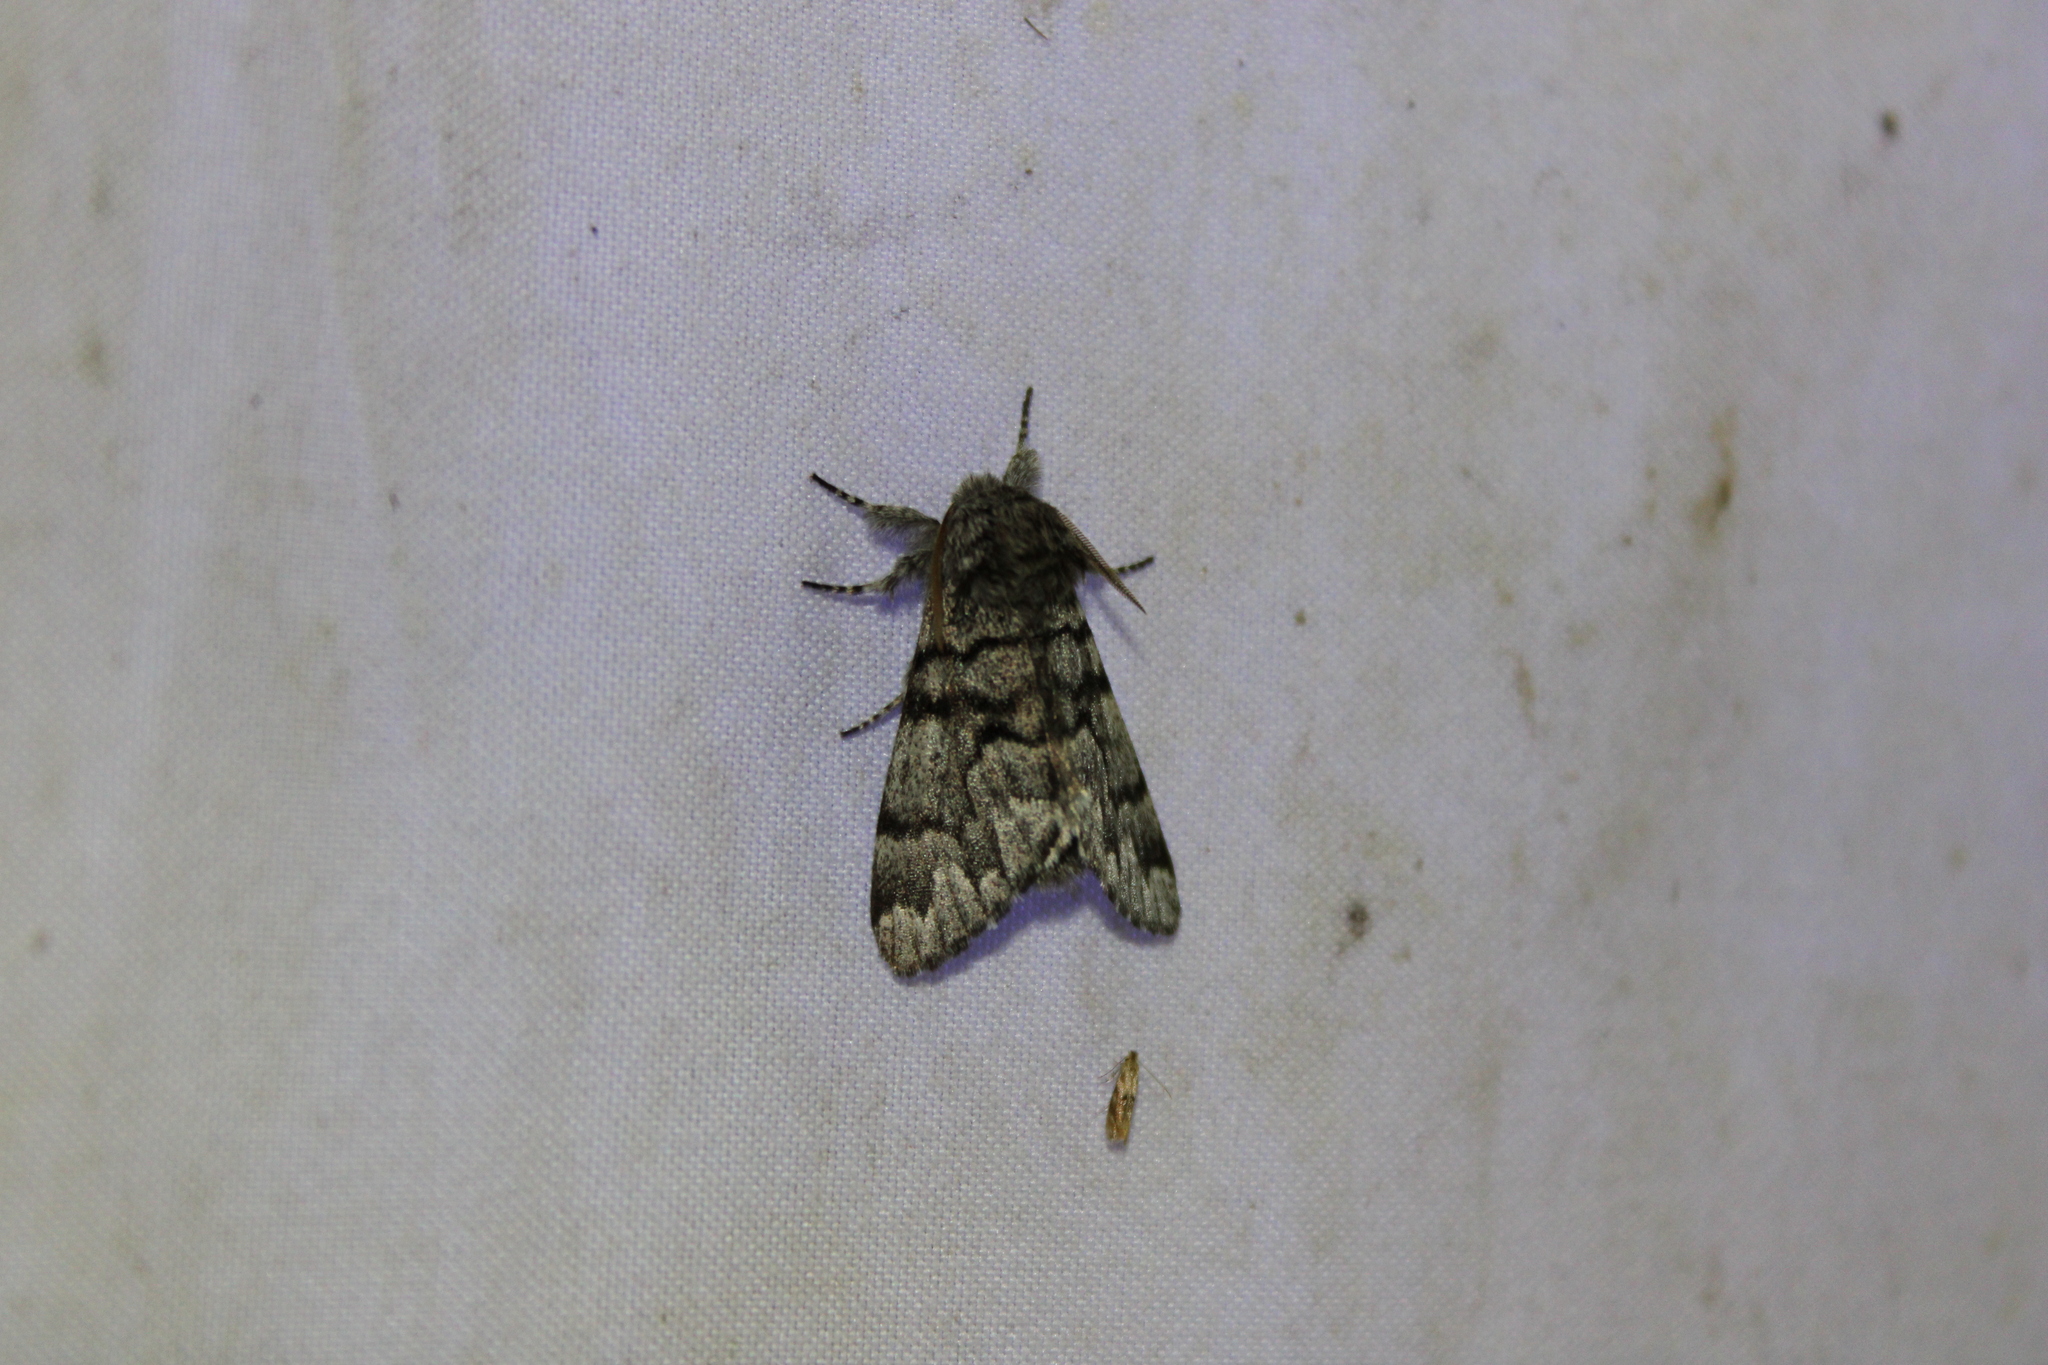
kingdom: Animalia
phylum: Arthropoda
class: Insecta
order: Lepidoptera
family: Noctuidae
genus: Panthea
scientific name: Panthea furcilla
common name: Eastern panthea moth
